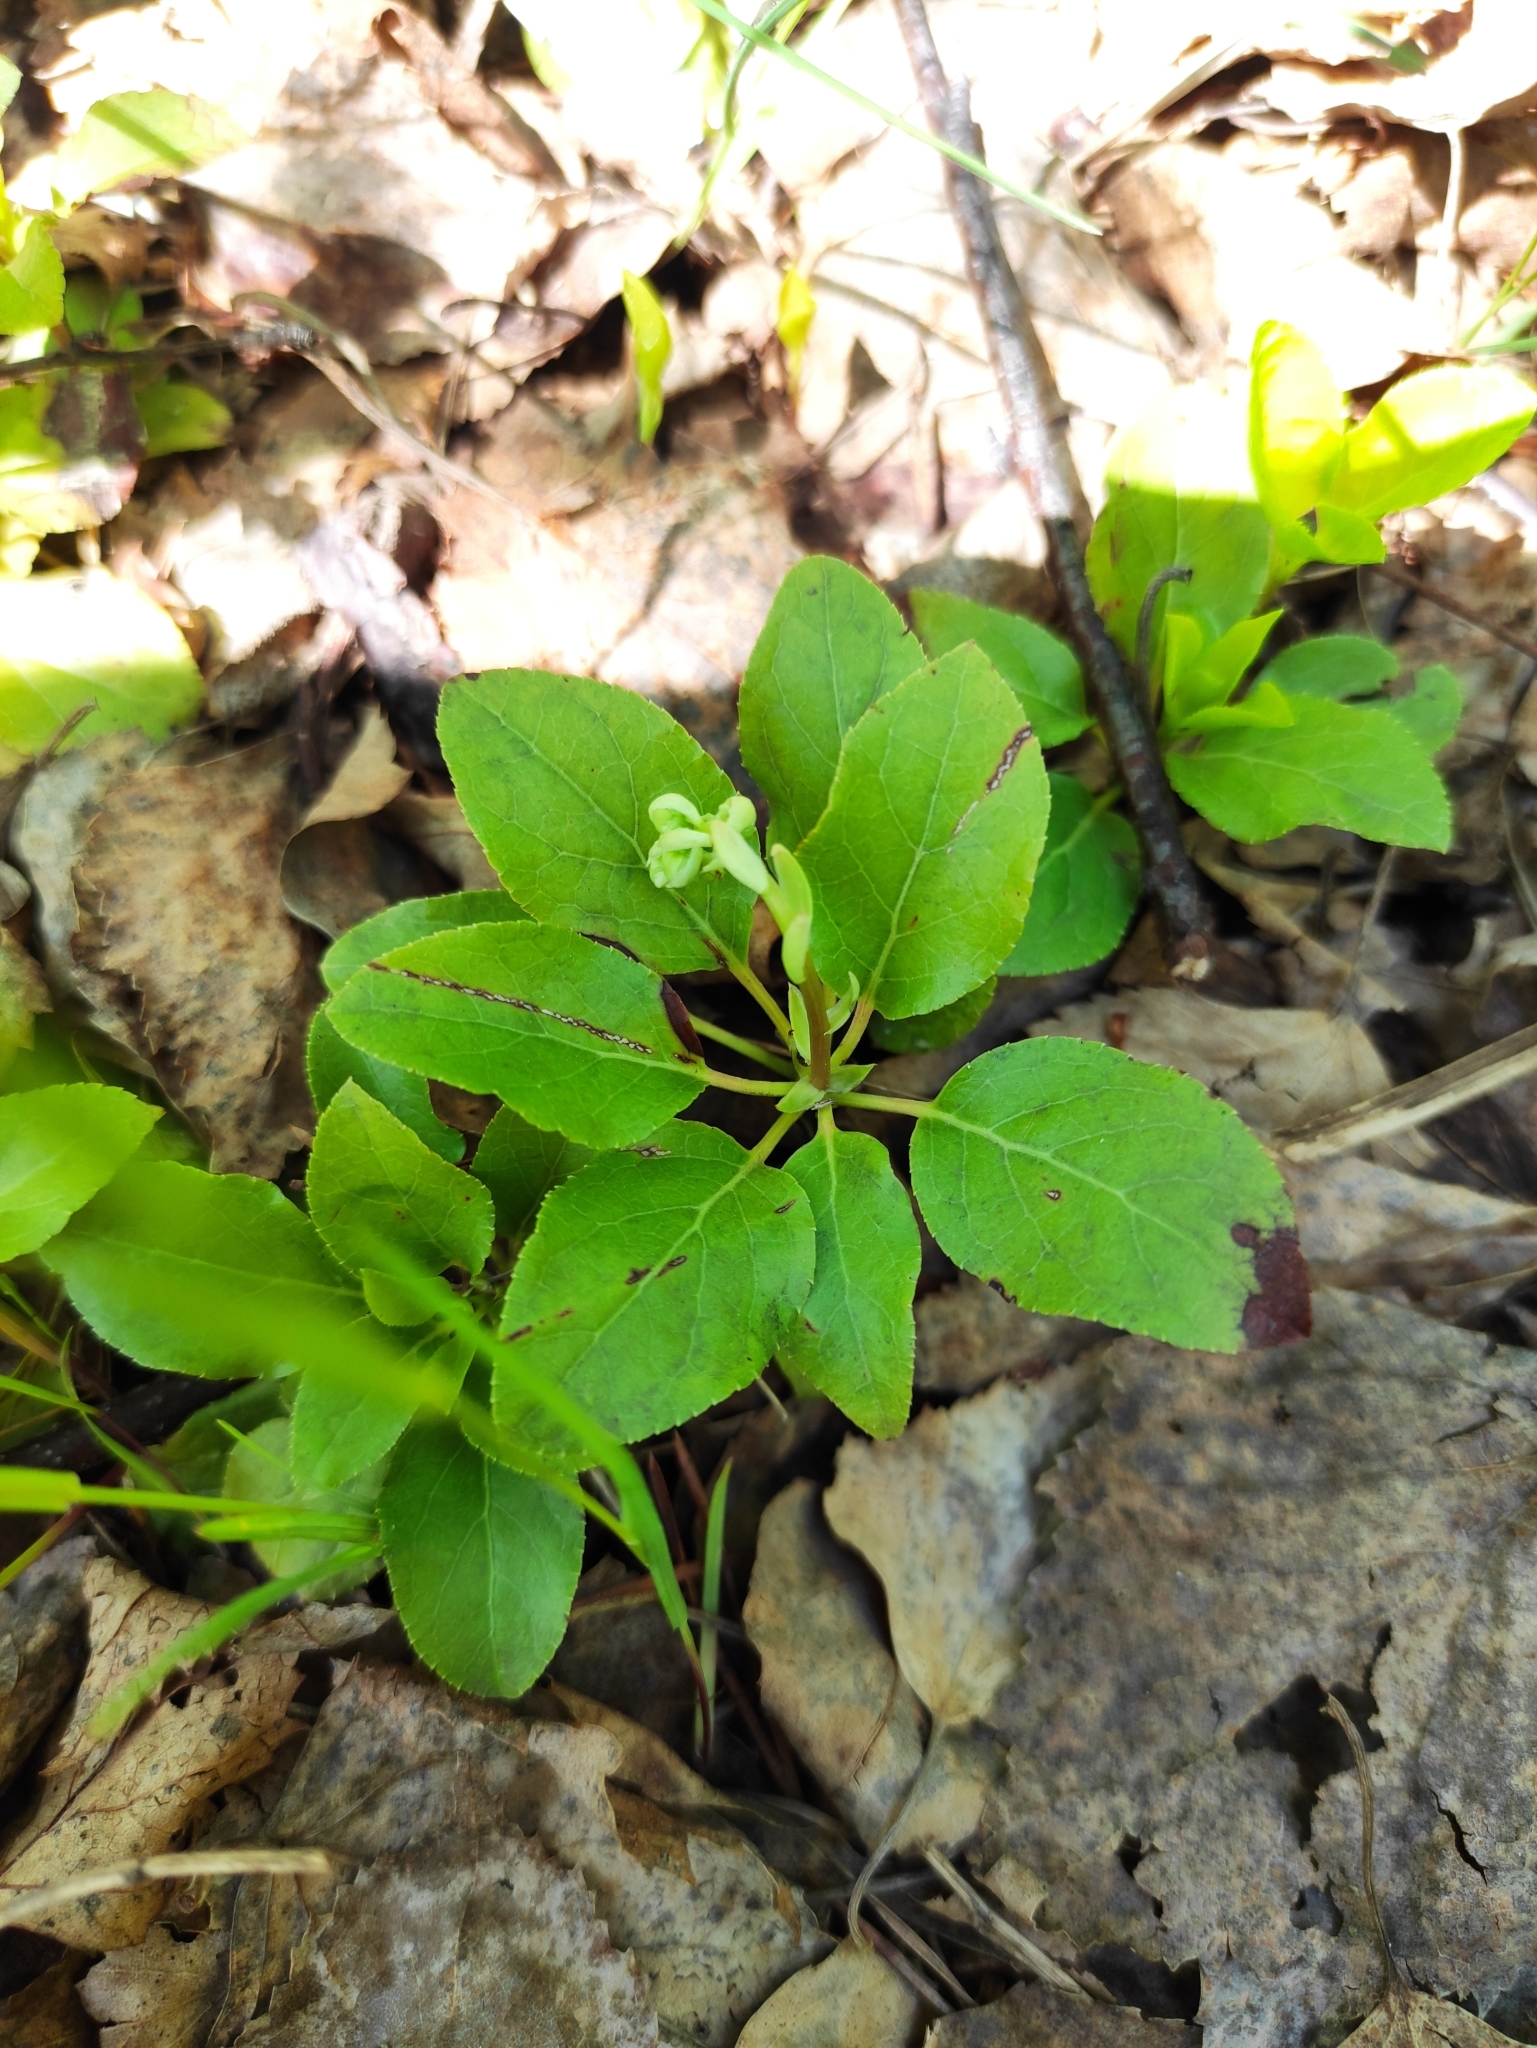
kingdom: Plantae
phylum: Tracheophyta
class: Magnoliopsida
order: Ericales
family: Ericaceae
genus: Orthilia
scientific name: Orthilia secunda
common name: One-sided orthilia
